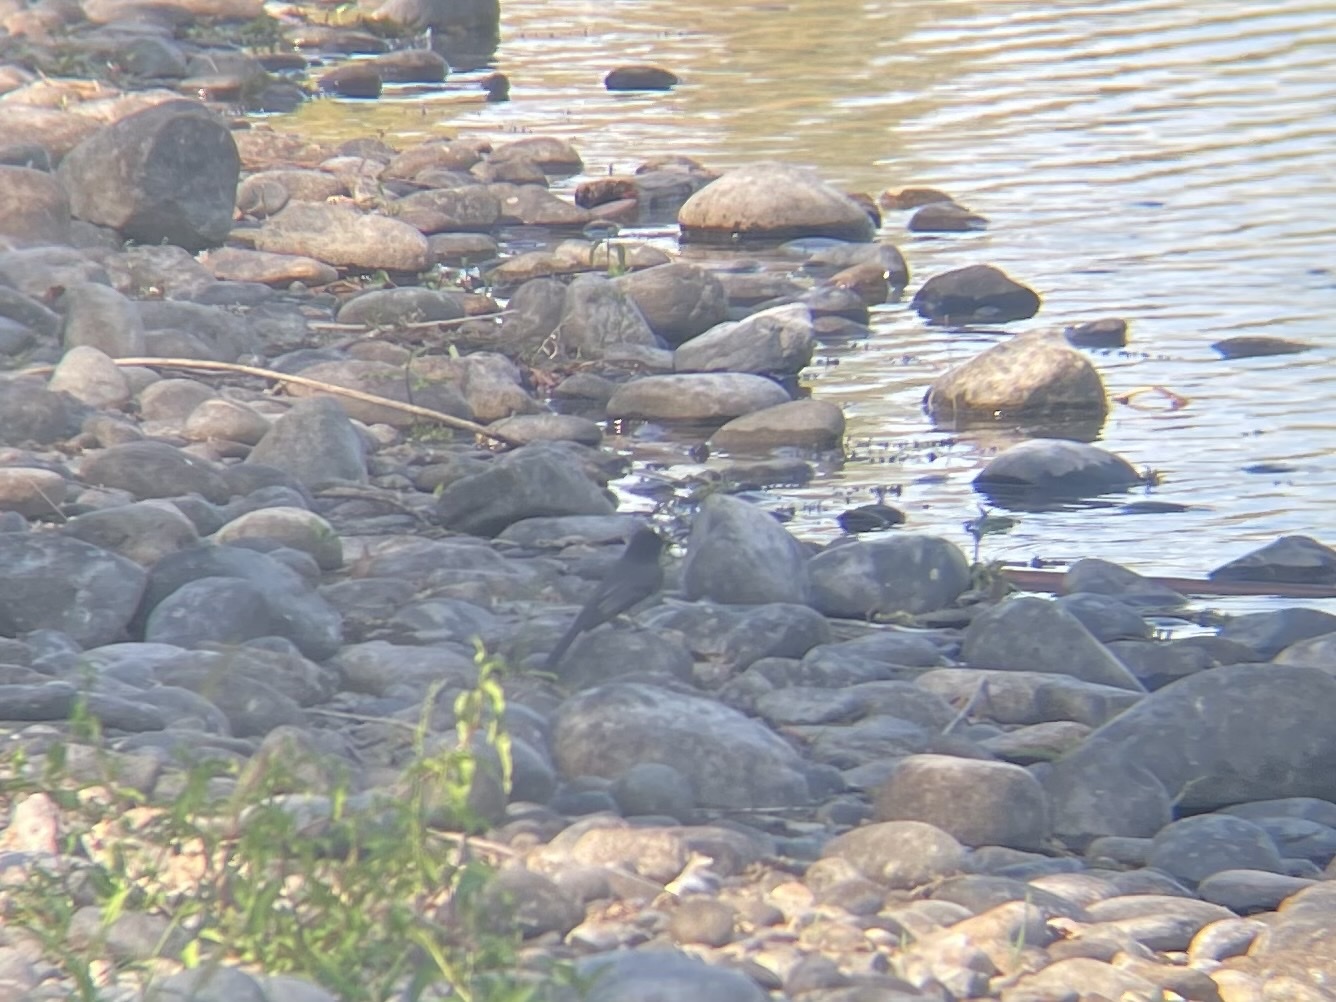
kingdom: Animalia
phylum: Chordata
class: Aves
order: Passeriformes
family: Tyrannidae
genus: Sayornis
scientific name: Sayornis nigricans
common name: Black phoebe
